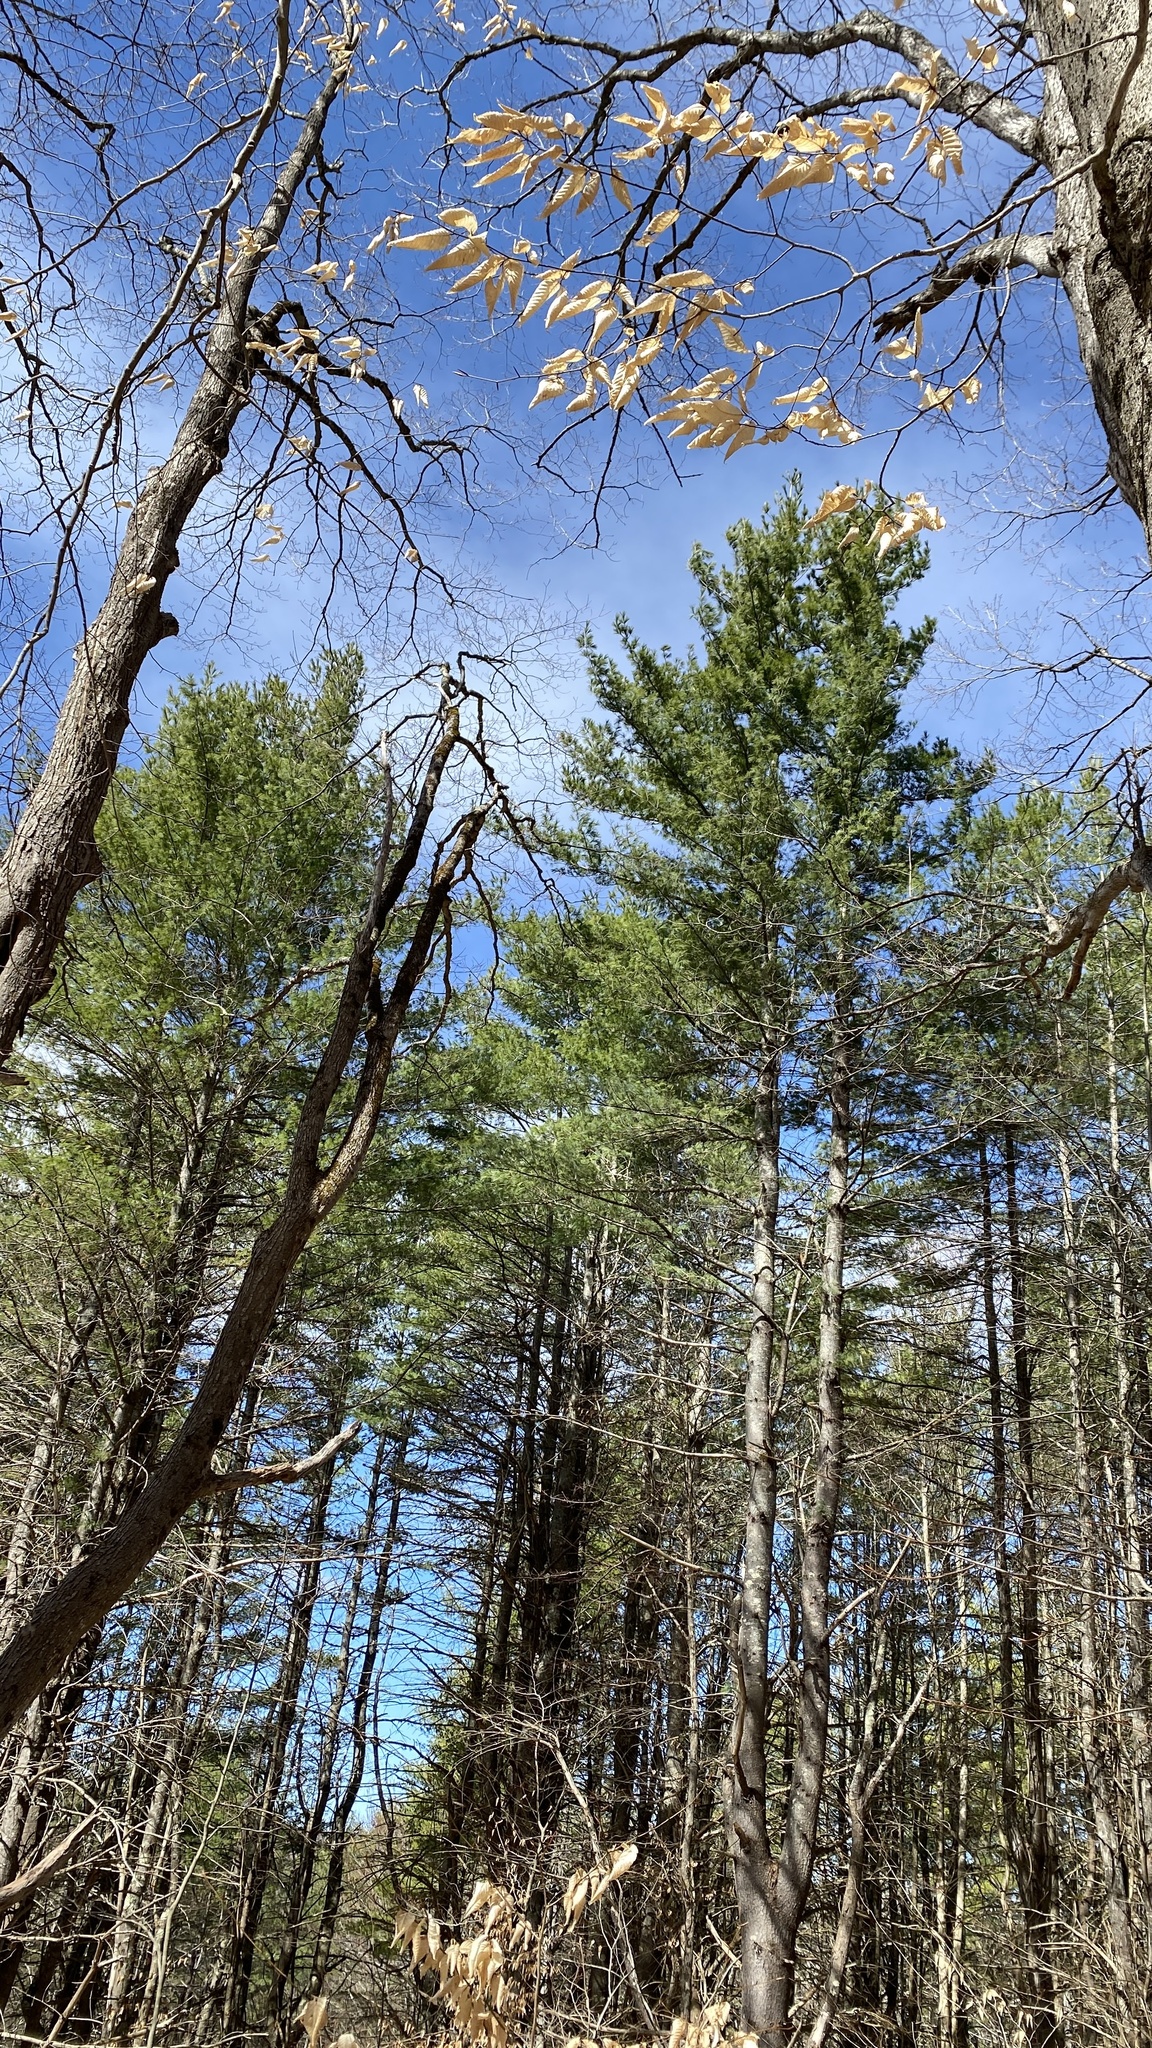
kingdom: Plantae
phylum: Tracheophyta
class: Pinopsida
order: Pinales
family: Pinaceae
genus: Pinus
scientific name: Pinus strobus
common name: Weymouth pine
